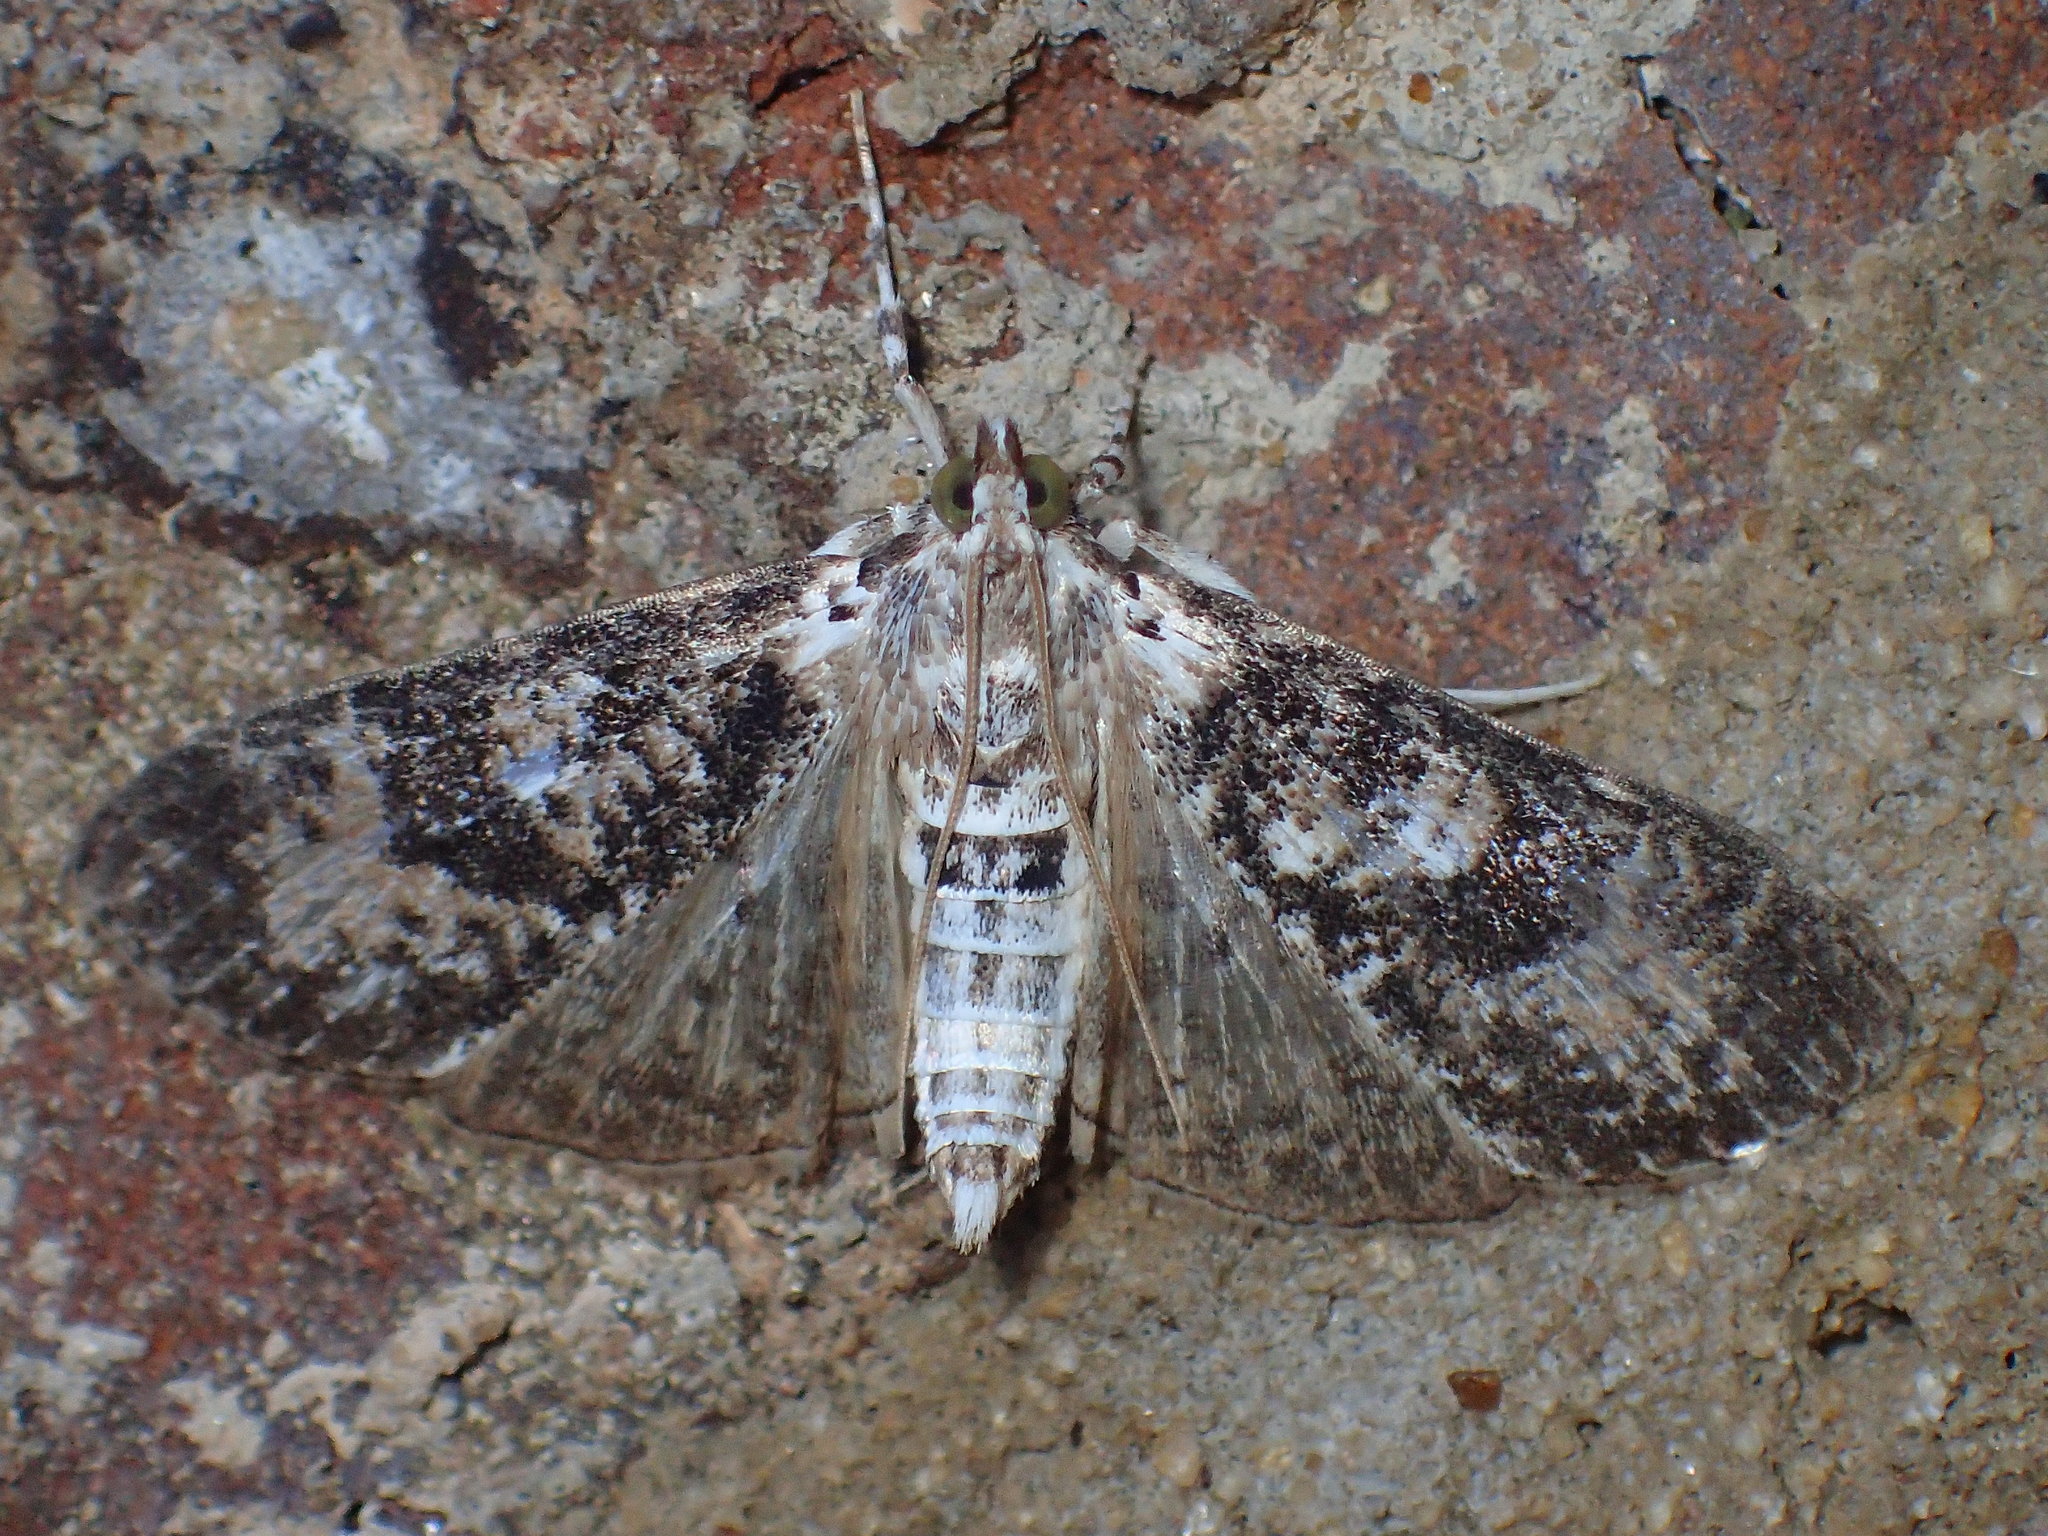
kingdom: Animalia
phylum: Arthropoda
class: Insecta
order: Lepidoptera
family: Crambidae
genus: Palpita
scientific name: Palpita magniferalis
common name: Splendid palpita moth
